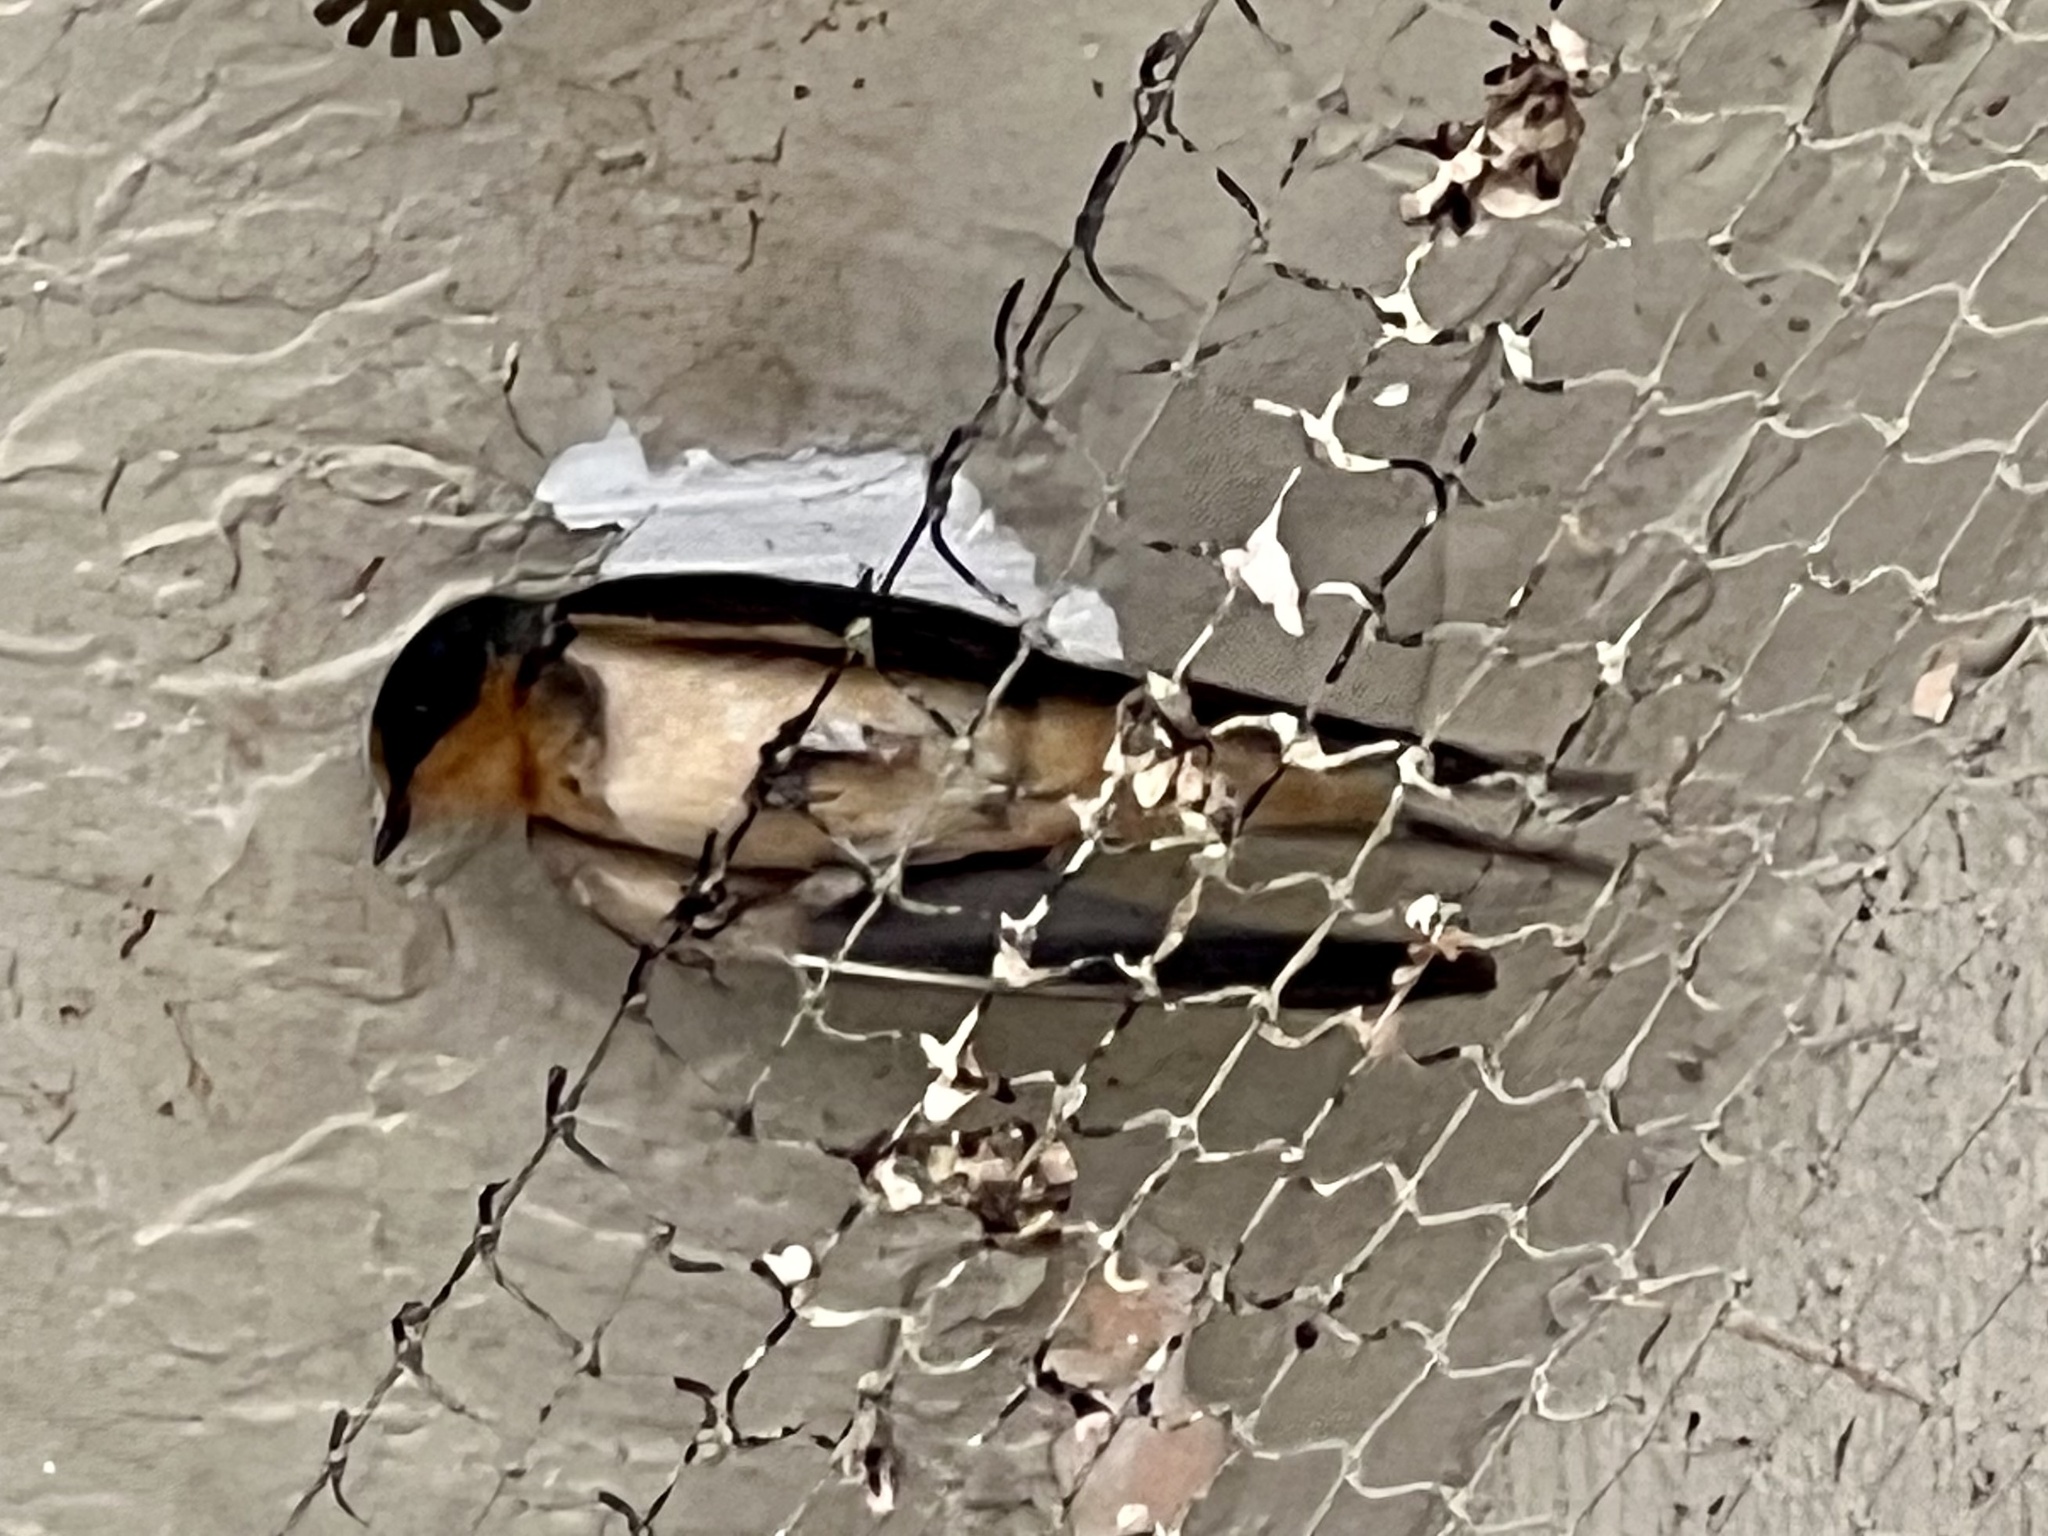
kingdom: Animalia
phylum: Chordata
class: Aves
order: Passeriformes
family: Hirundinidae
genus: Hirundo
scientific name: Hirundo rustica
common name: Barn swallow
